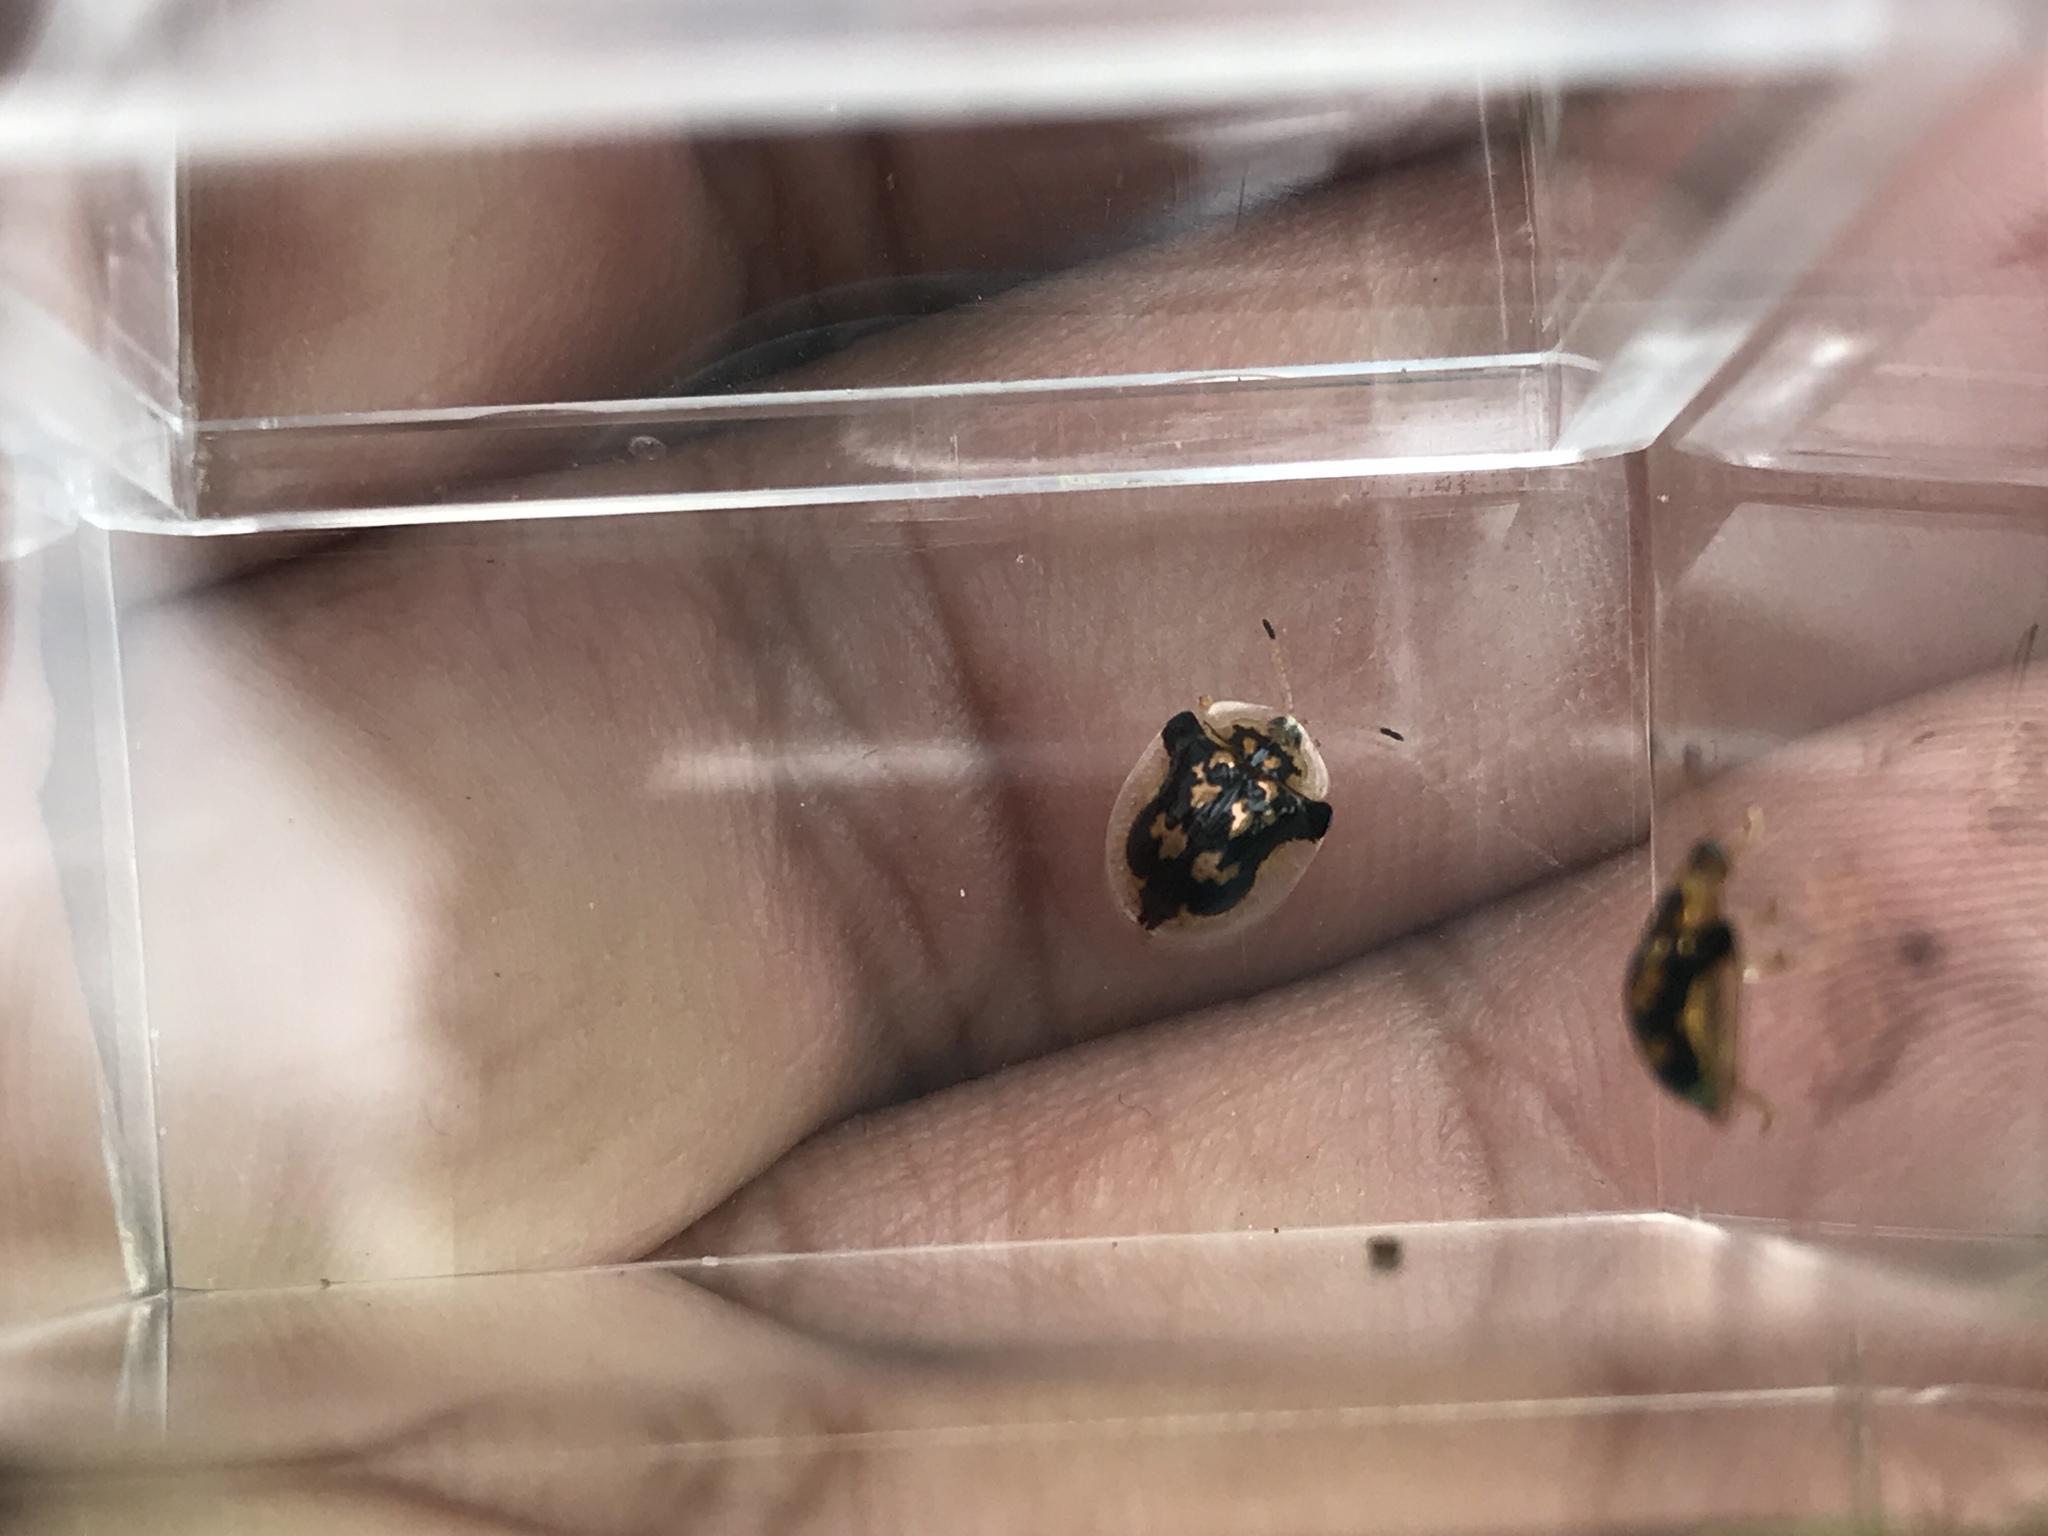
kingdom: Animalia
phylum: Arthropoda
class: Insecta
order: Coleoptera
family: Chrysomelidae
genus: Deloyala
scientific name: Deloyala guttata
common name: Mottled tortoise beetle
